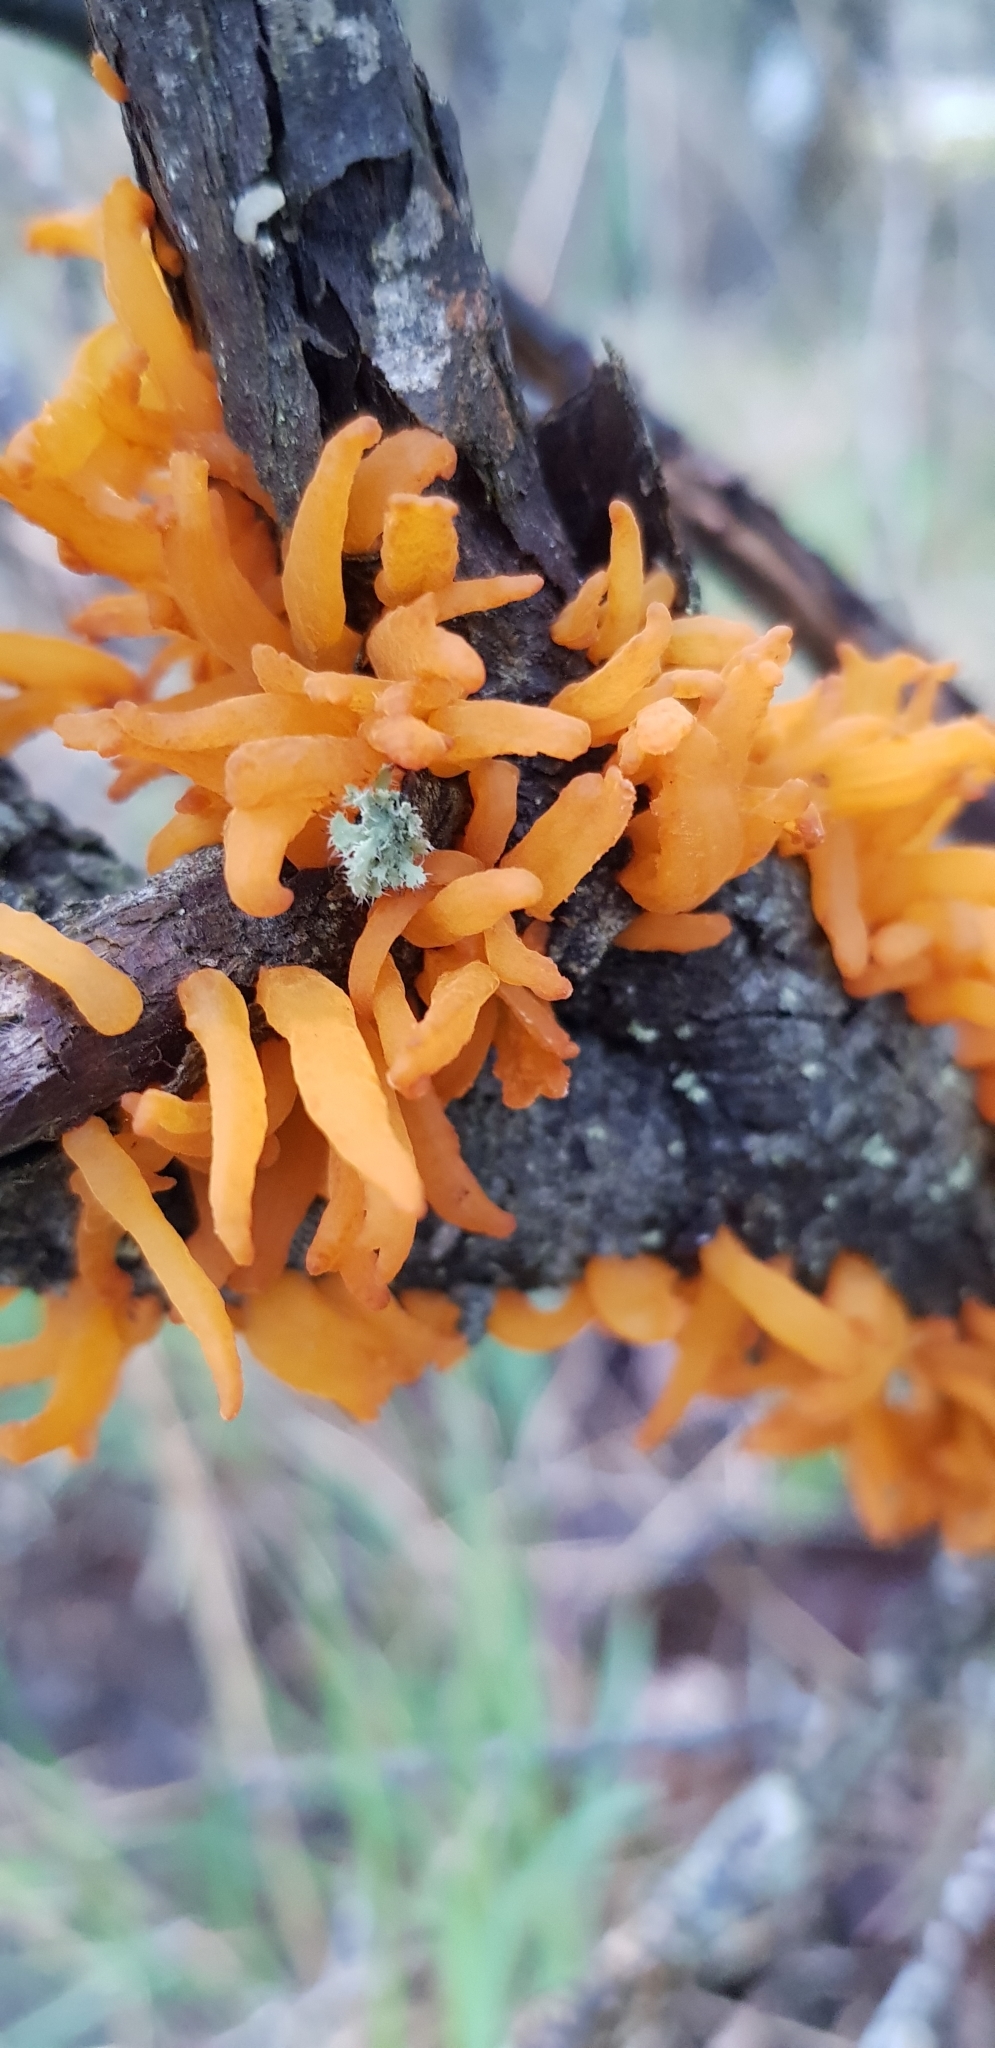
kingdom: Fungi
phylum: Basidiomycota
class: Pucciniomycetes
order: Pucciniales
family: Gymnosporangiaceae
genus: Gymnosporangium
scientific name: Gymnosporangium clavariiforme
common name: Tongues of fire
